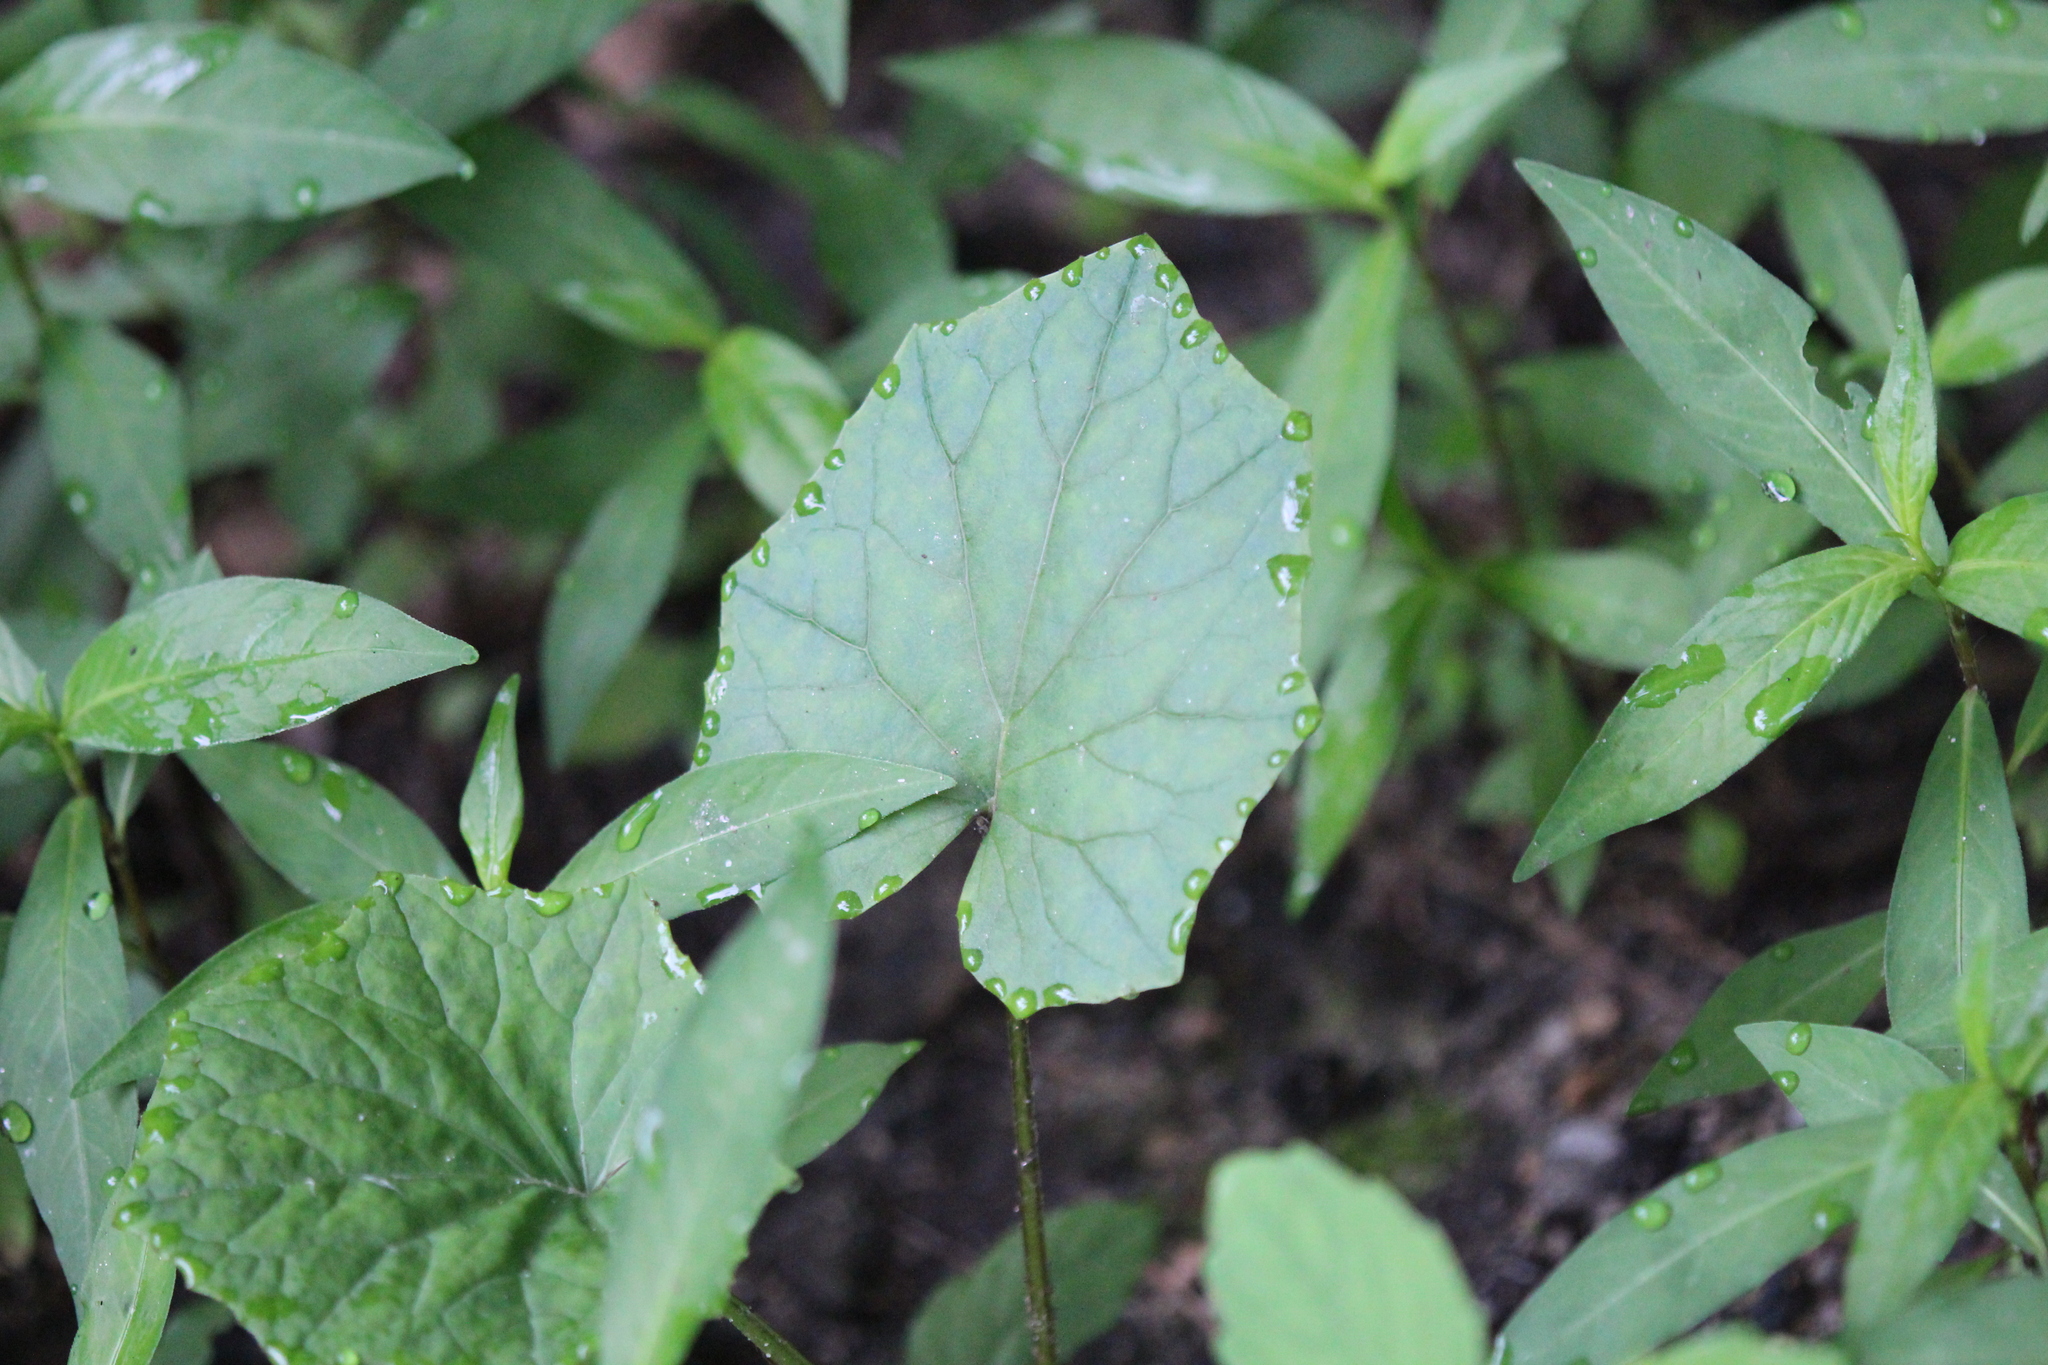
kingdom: Plantae
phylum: Tracheophyta
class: Magnoliopsida
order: Asterales
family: Asteraceae
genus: Tussilago
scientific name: Tussilago farfara
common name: Coltsfoot
